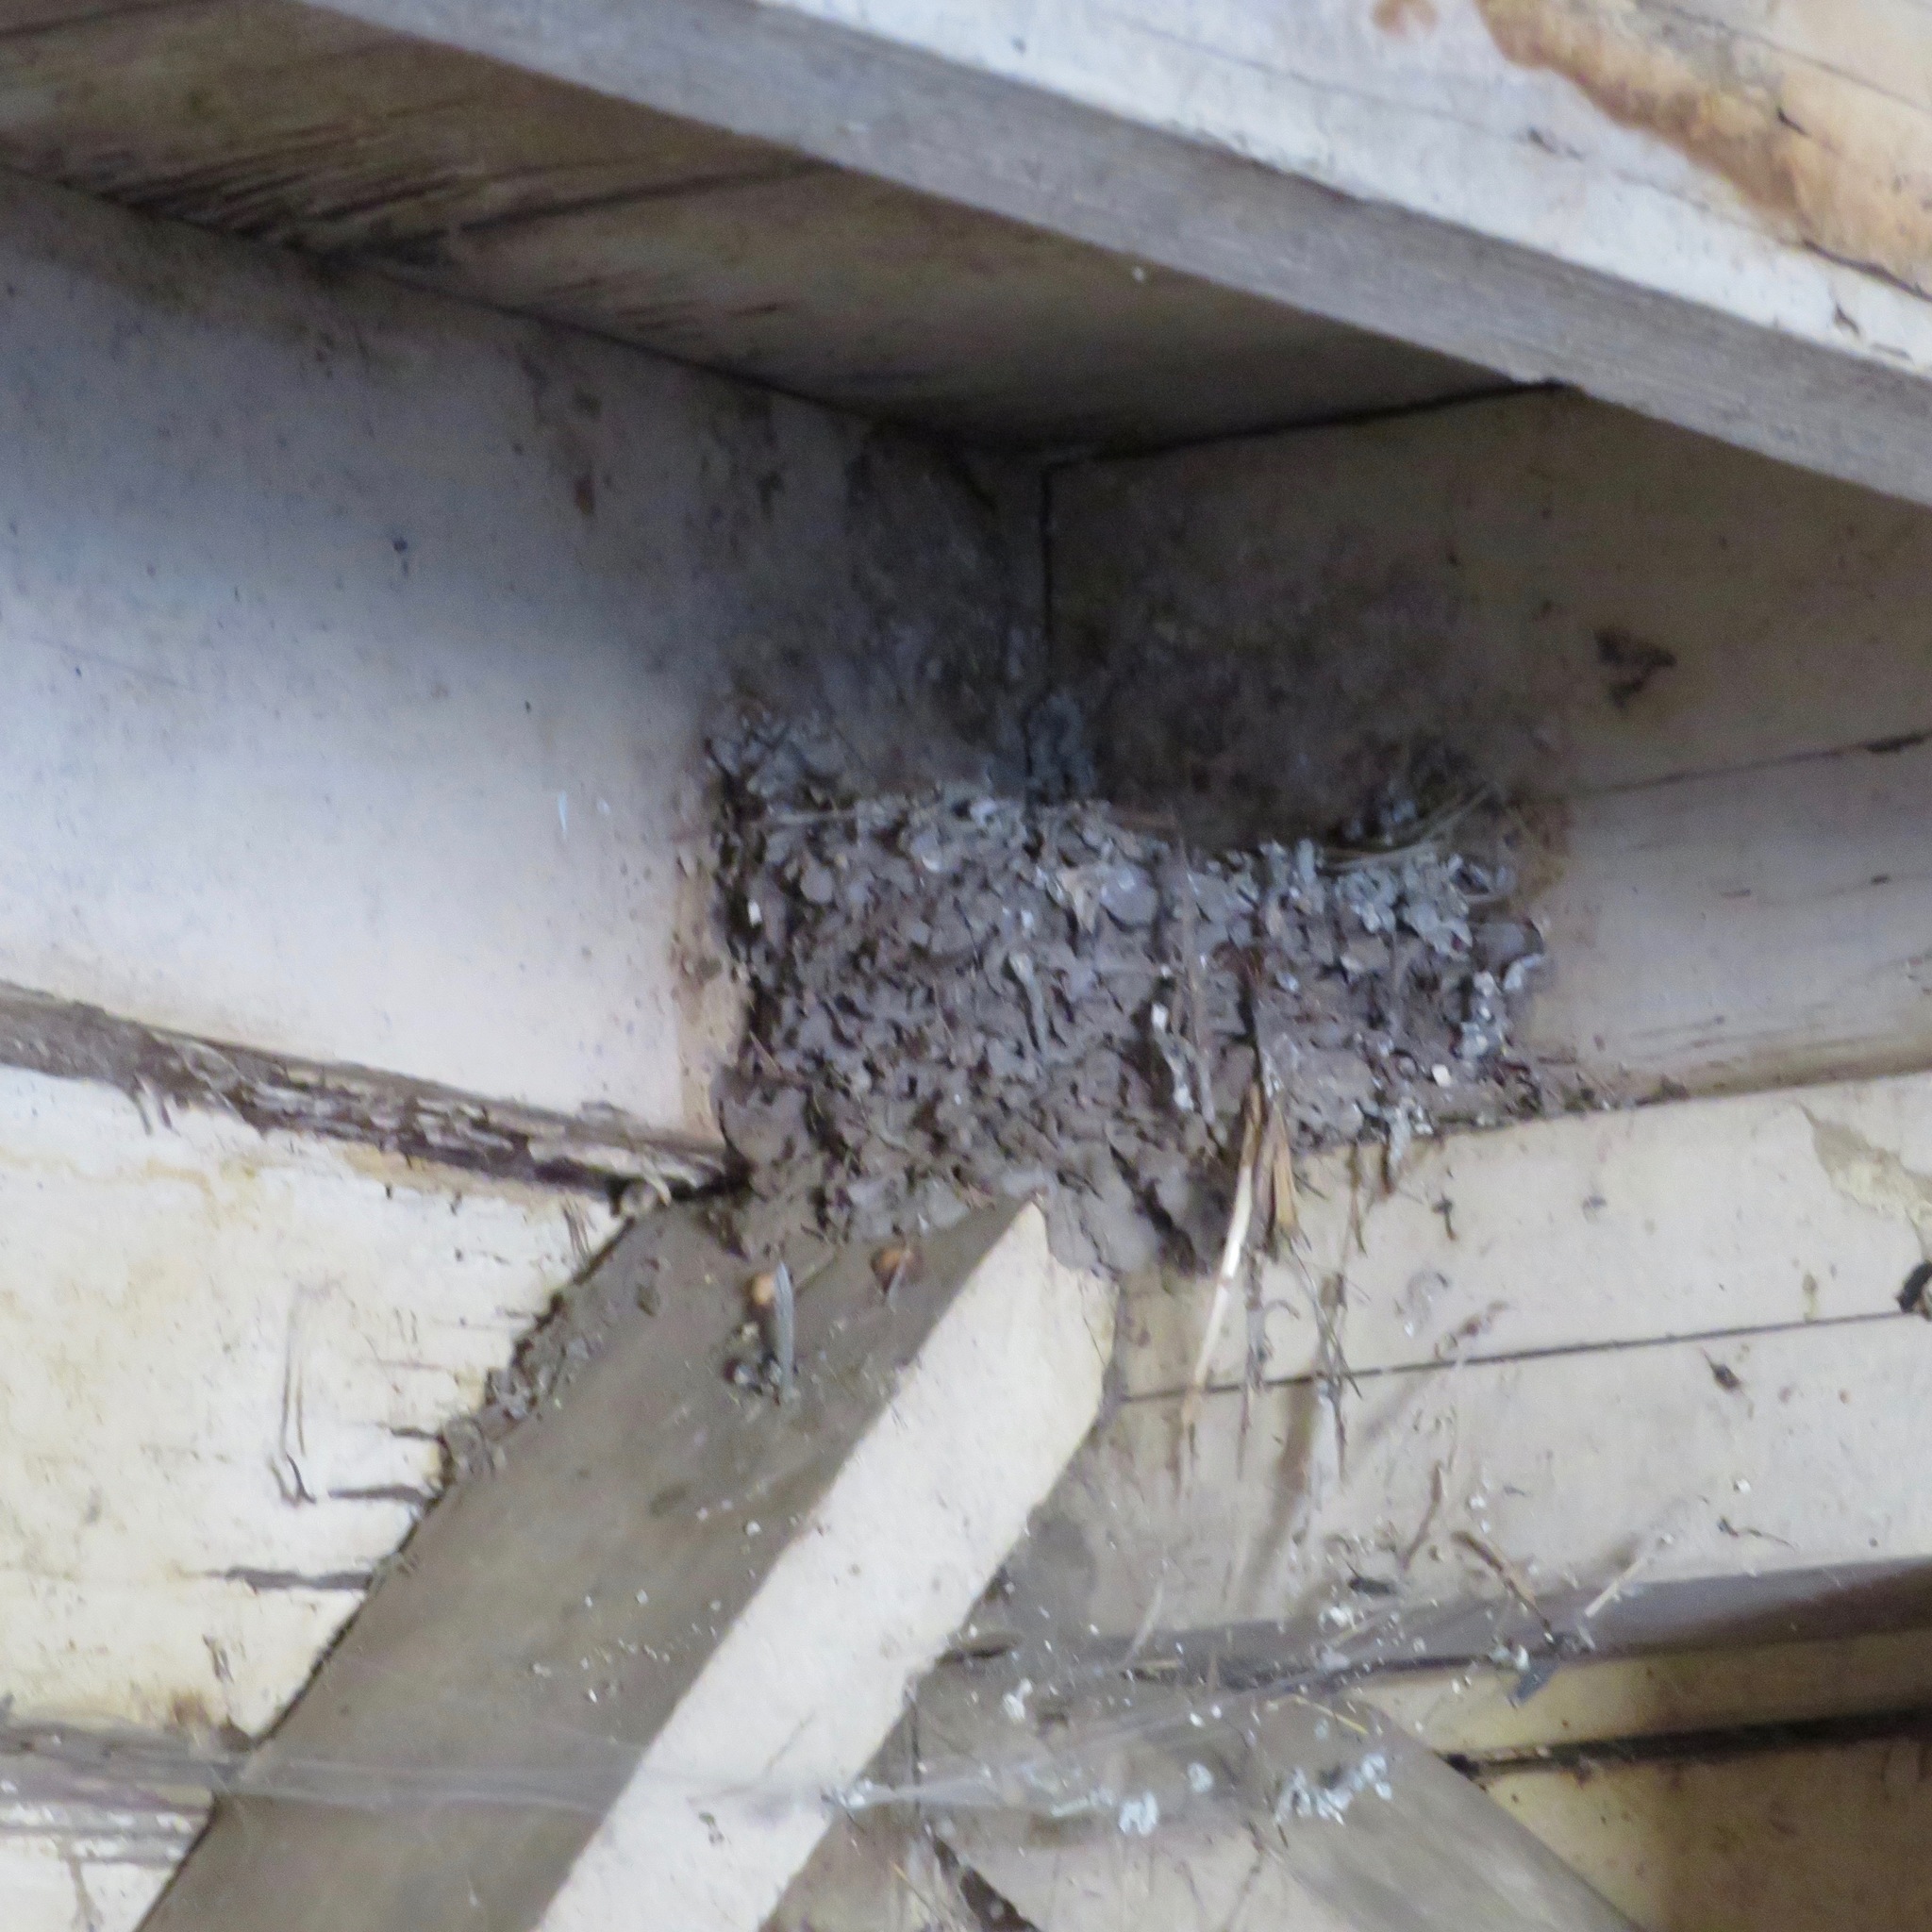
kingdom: Animalia
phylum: Chordata
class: Aves
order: Passeriformes
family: Hirundinidae
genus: Hirundo
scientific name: Hirundo rustica
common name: Barn swallow
